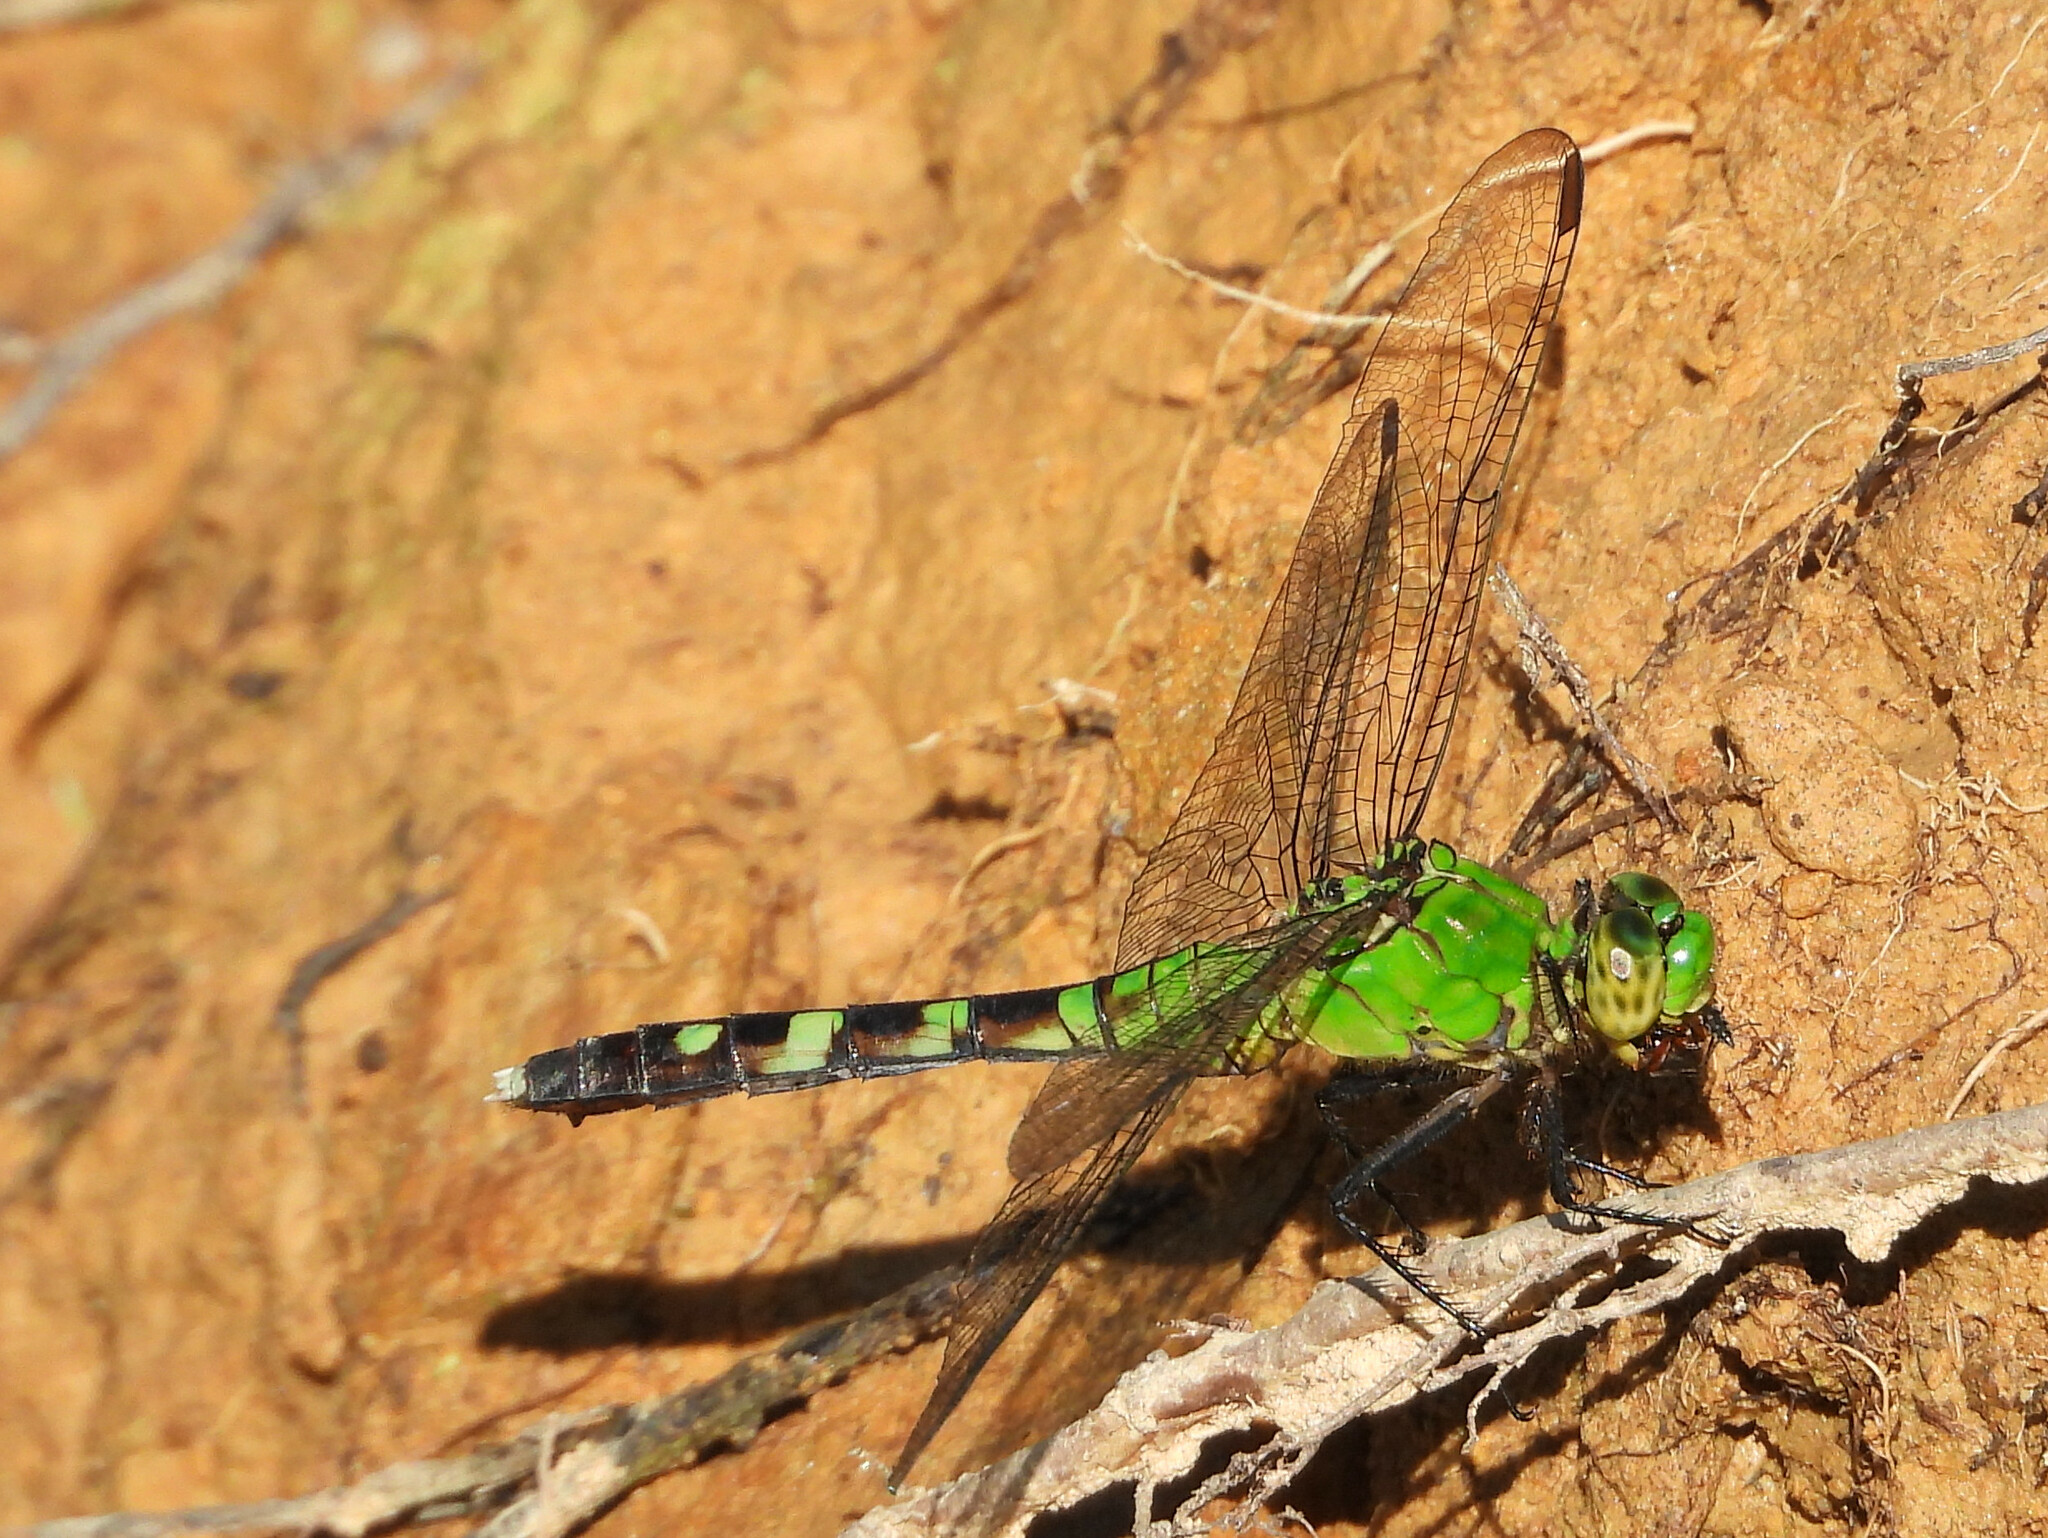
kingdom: Animalia
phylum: Arthropoda
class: Insecta
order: Odonata
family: Libellulidae
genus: Erythemis
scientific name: Erythemis simplicicollis
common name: Eastern pondhawk
